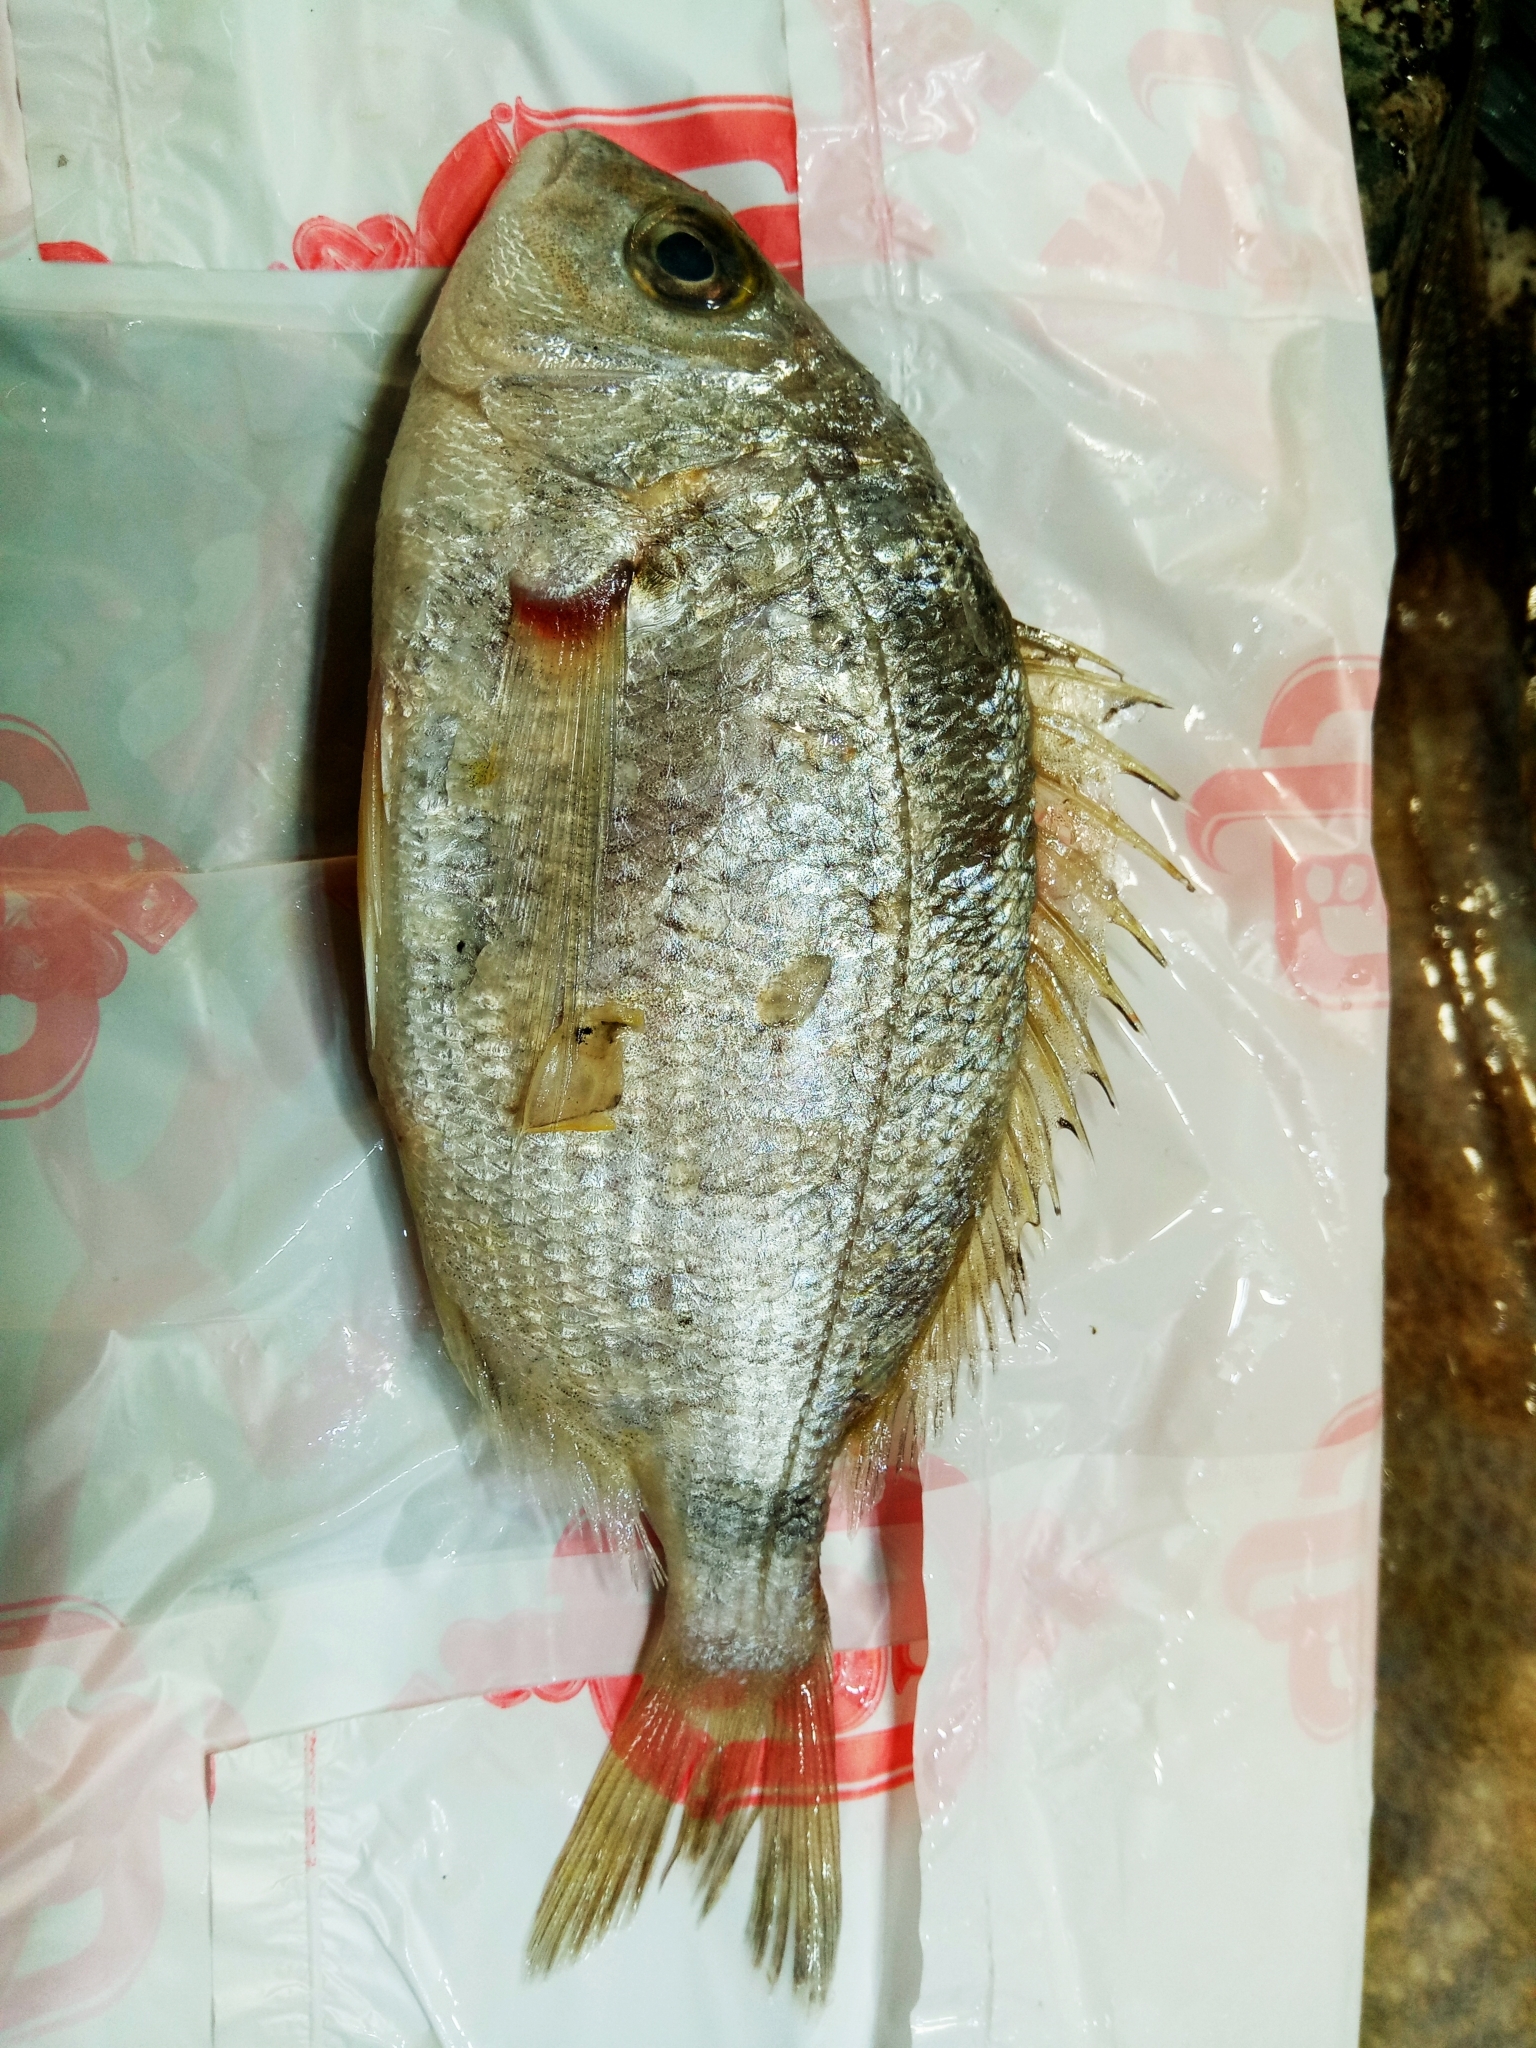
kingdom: Animalia
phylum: Chordata
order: Perciformes
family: Sparidae
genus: Diplodus
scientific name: Diplodus annularis
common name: Annular seabream
